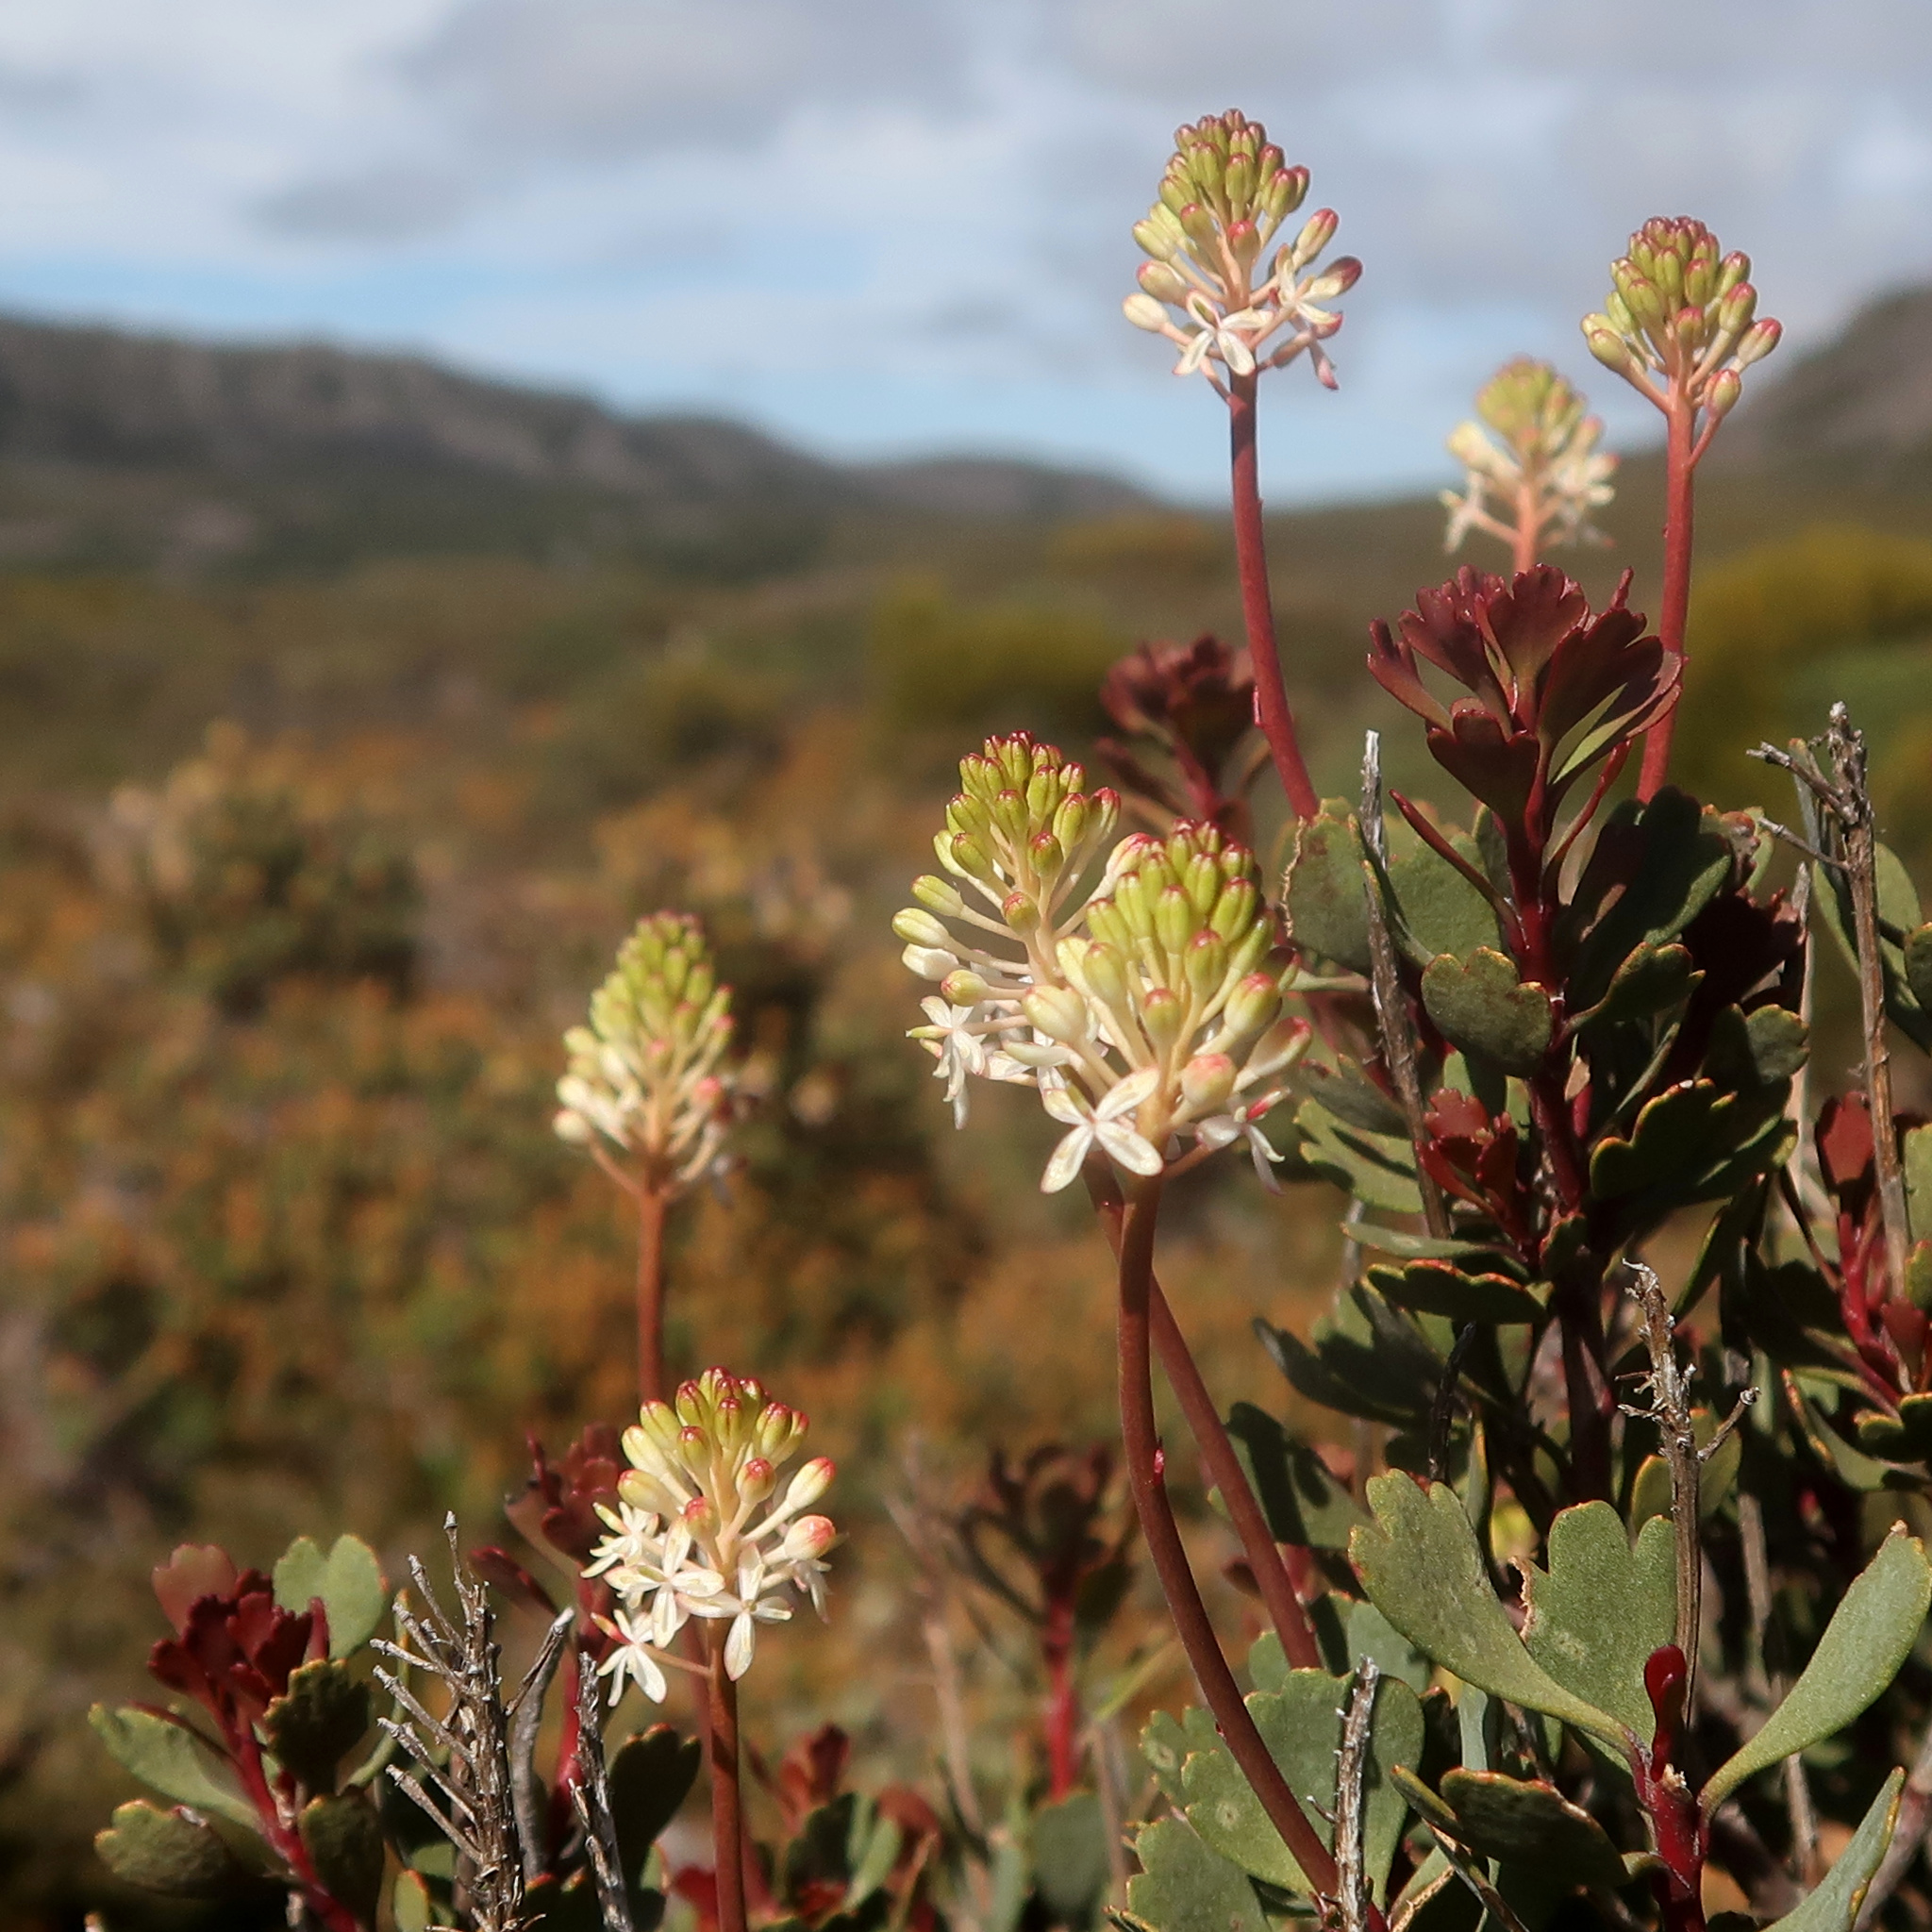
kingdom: Plantae
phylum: Tracheophyta
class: Magnoliopsida
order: Proteales
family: Proteaceae
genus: Bellendena
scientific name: Bellendena montana
